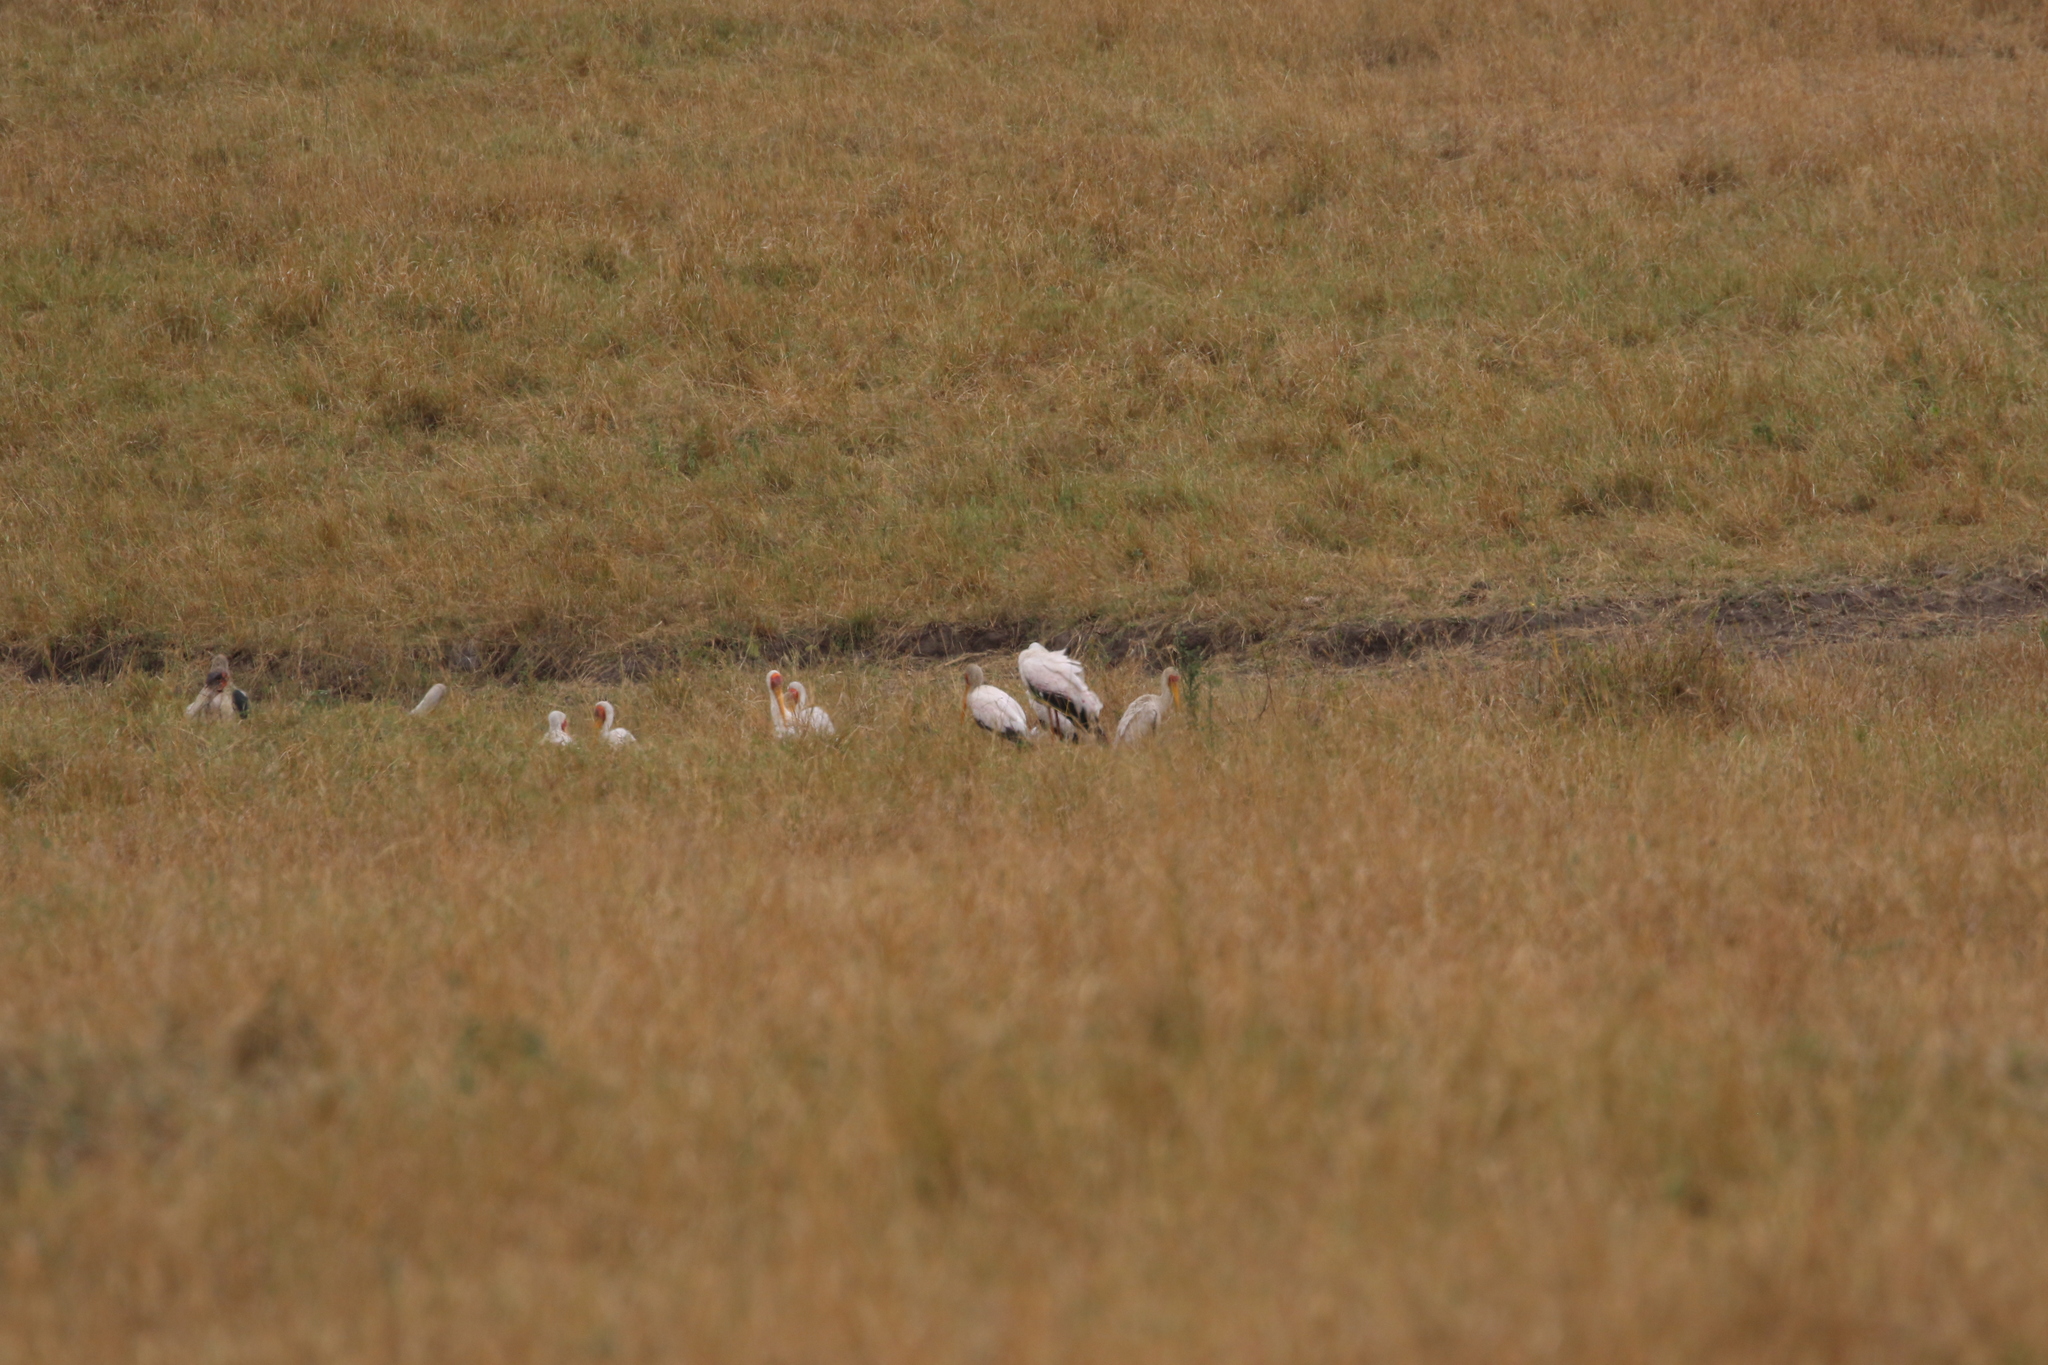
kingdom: Animalia
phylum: Chordata
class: Aves
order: Ciconiiformes
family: Ciconiidae
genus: Mycteria
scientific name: Mycteria ibis
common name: Yellow-billed stork
